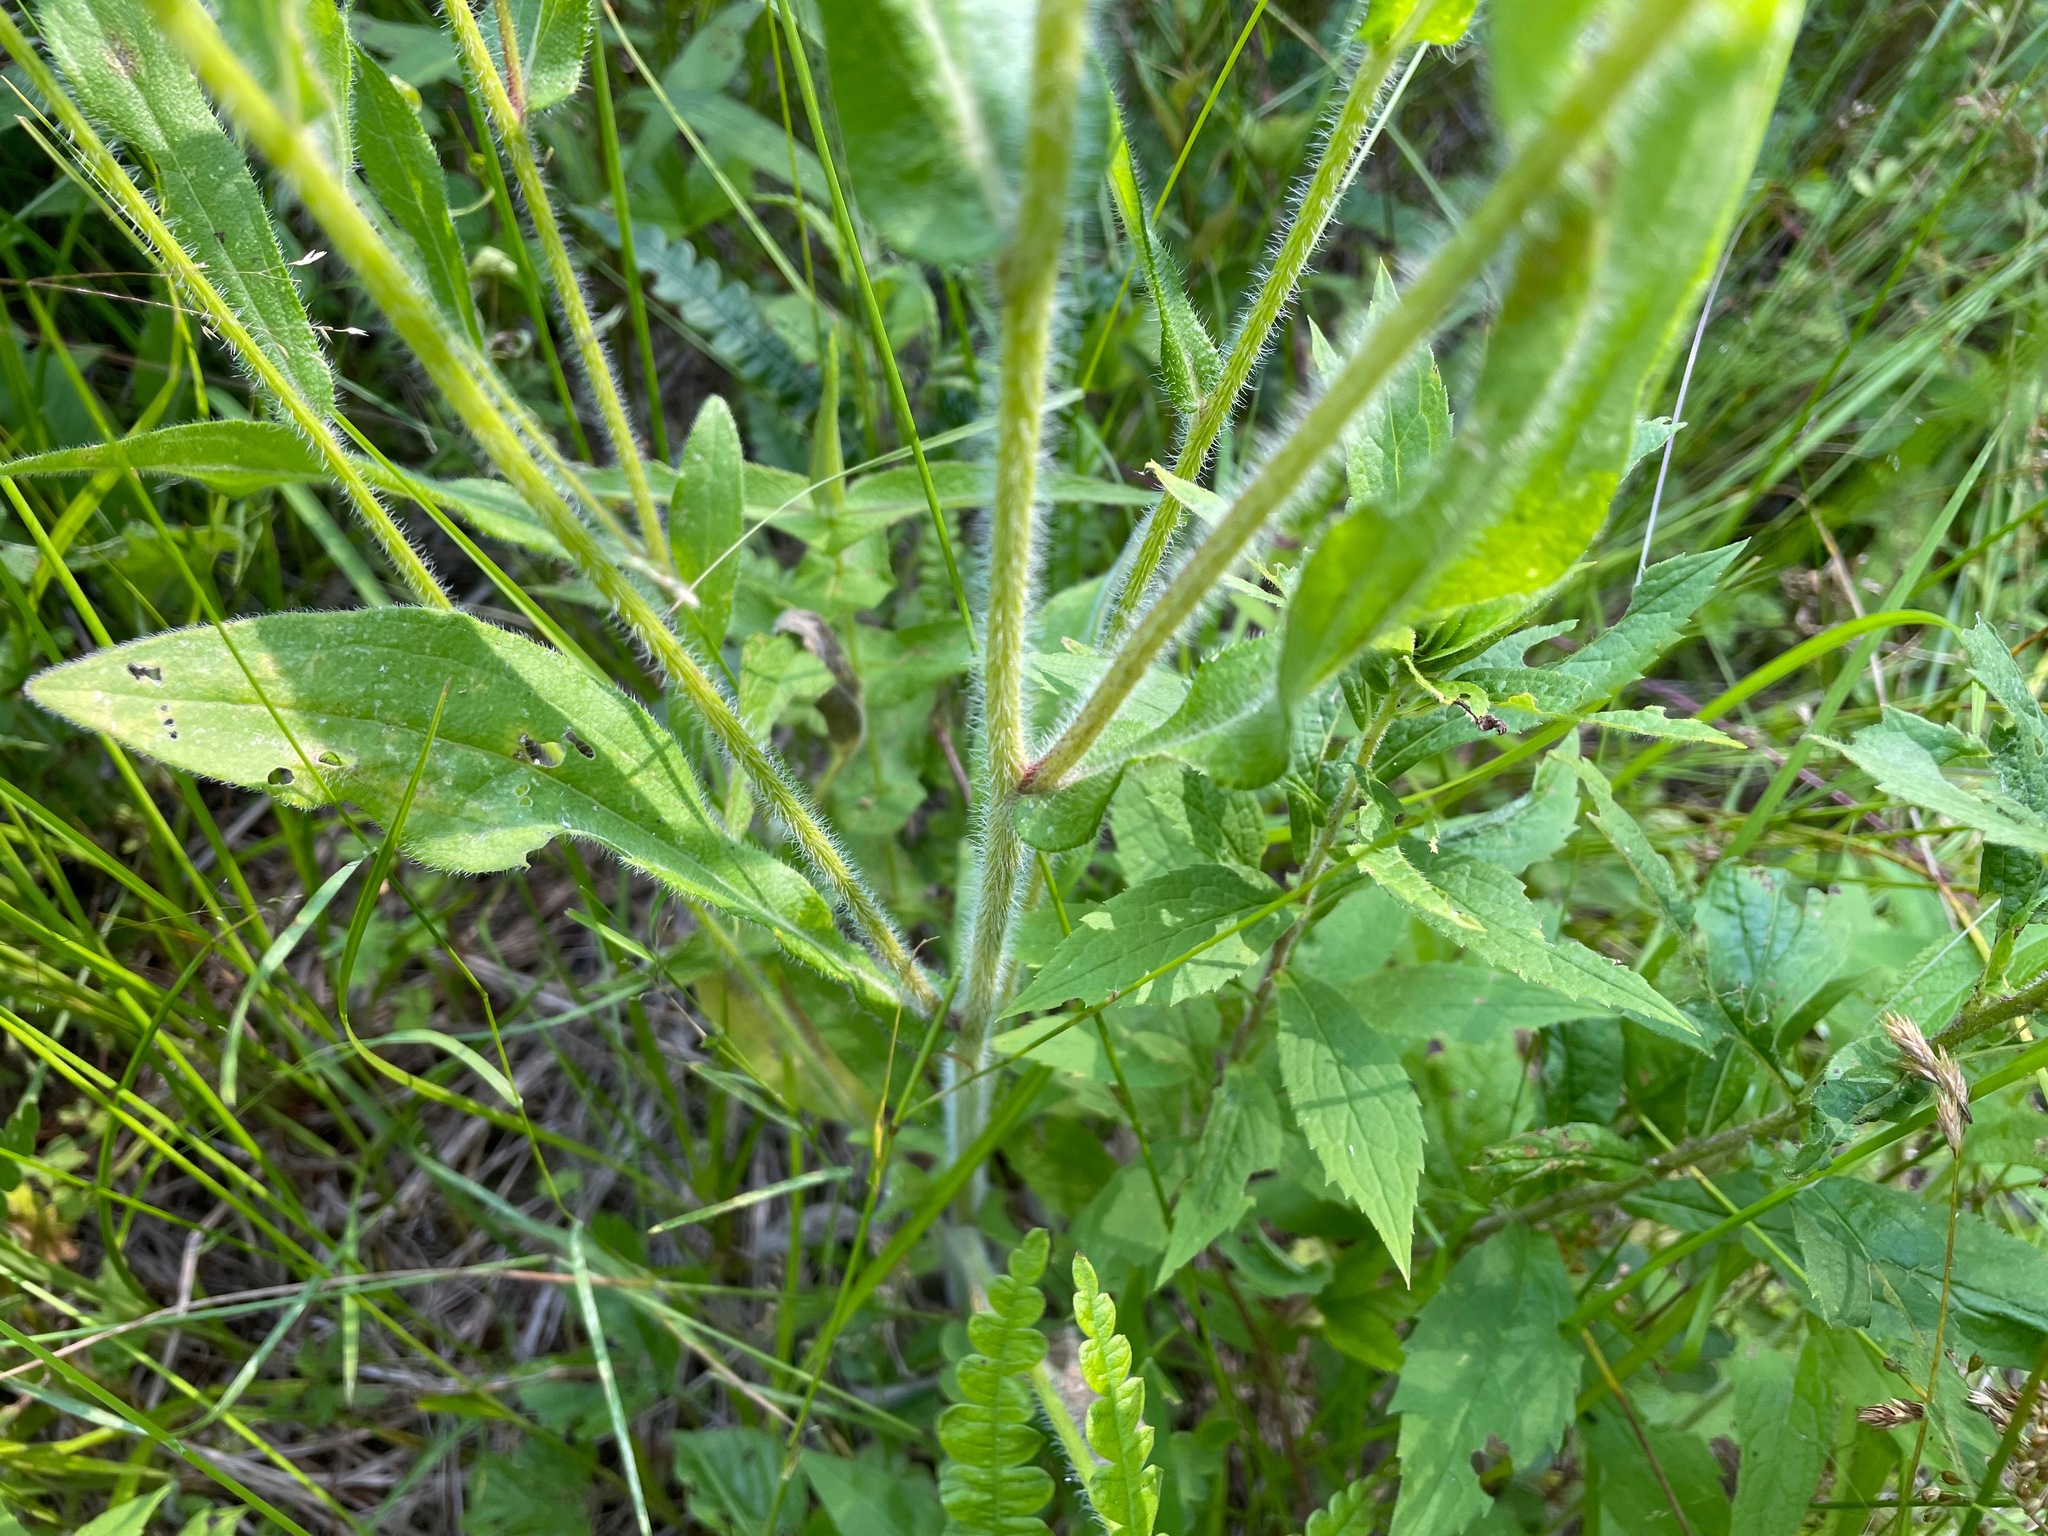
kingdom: Plantae
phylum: Tracheophyta
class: Magnoliopsida
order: Asterales
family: Asteraceae
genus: Rudbeckia
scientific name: Rudbeckia hirta
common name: Black-eyed-susan
